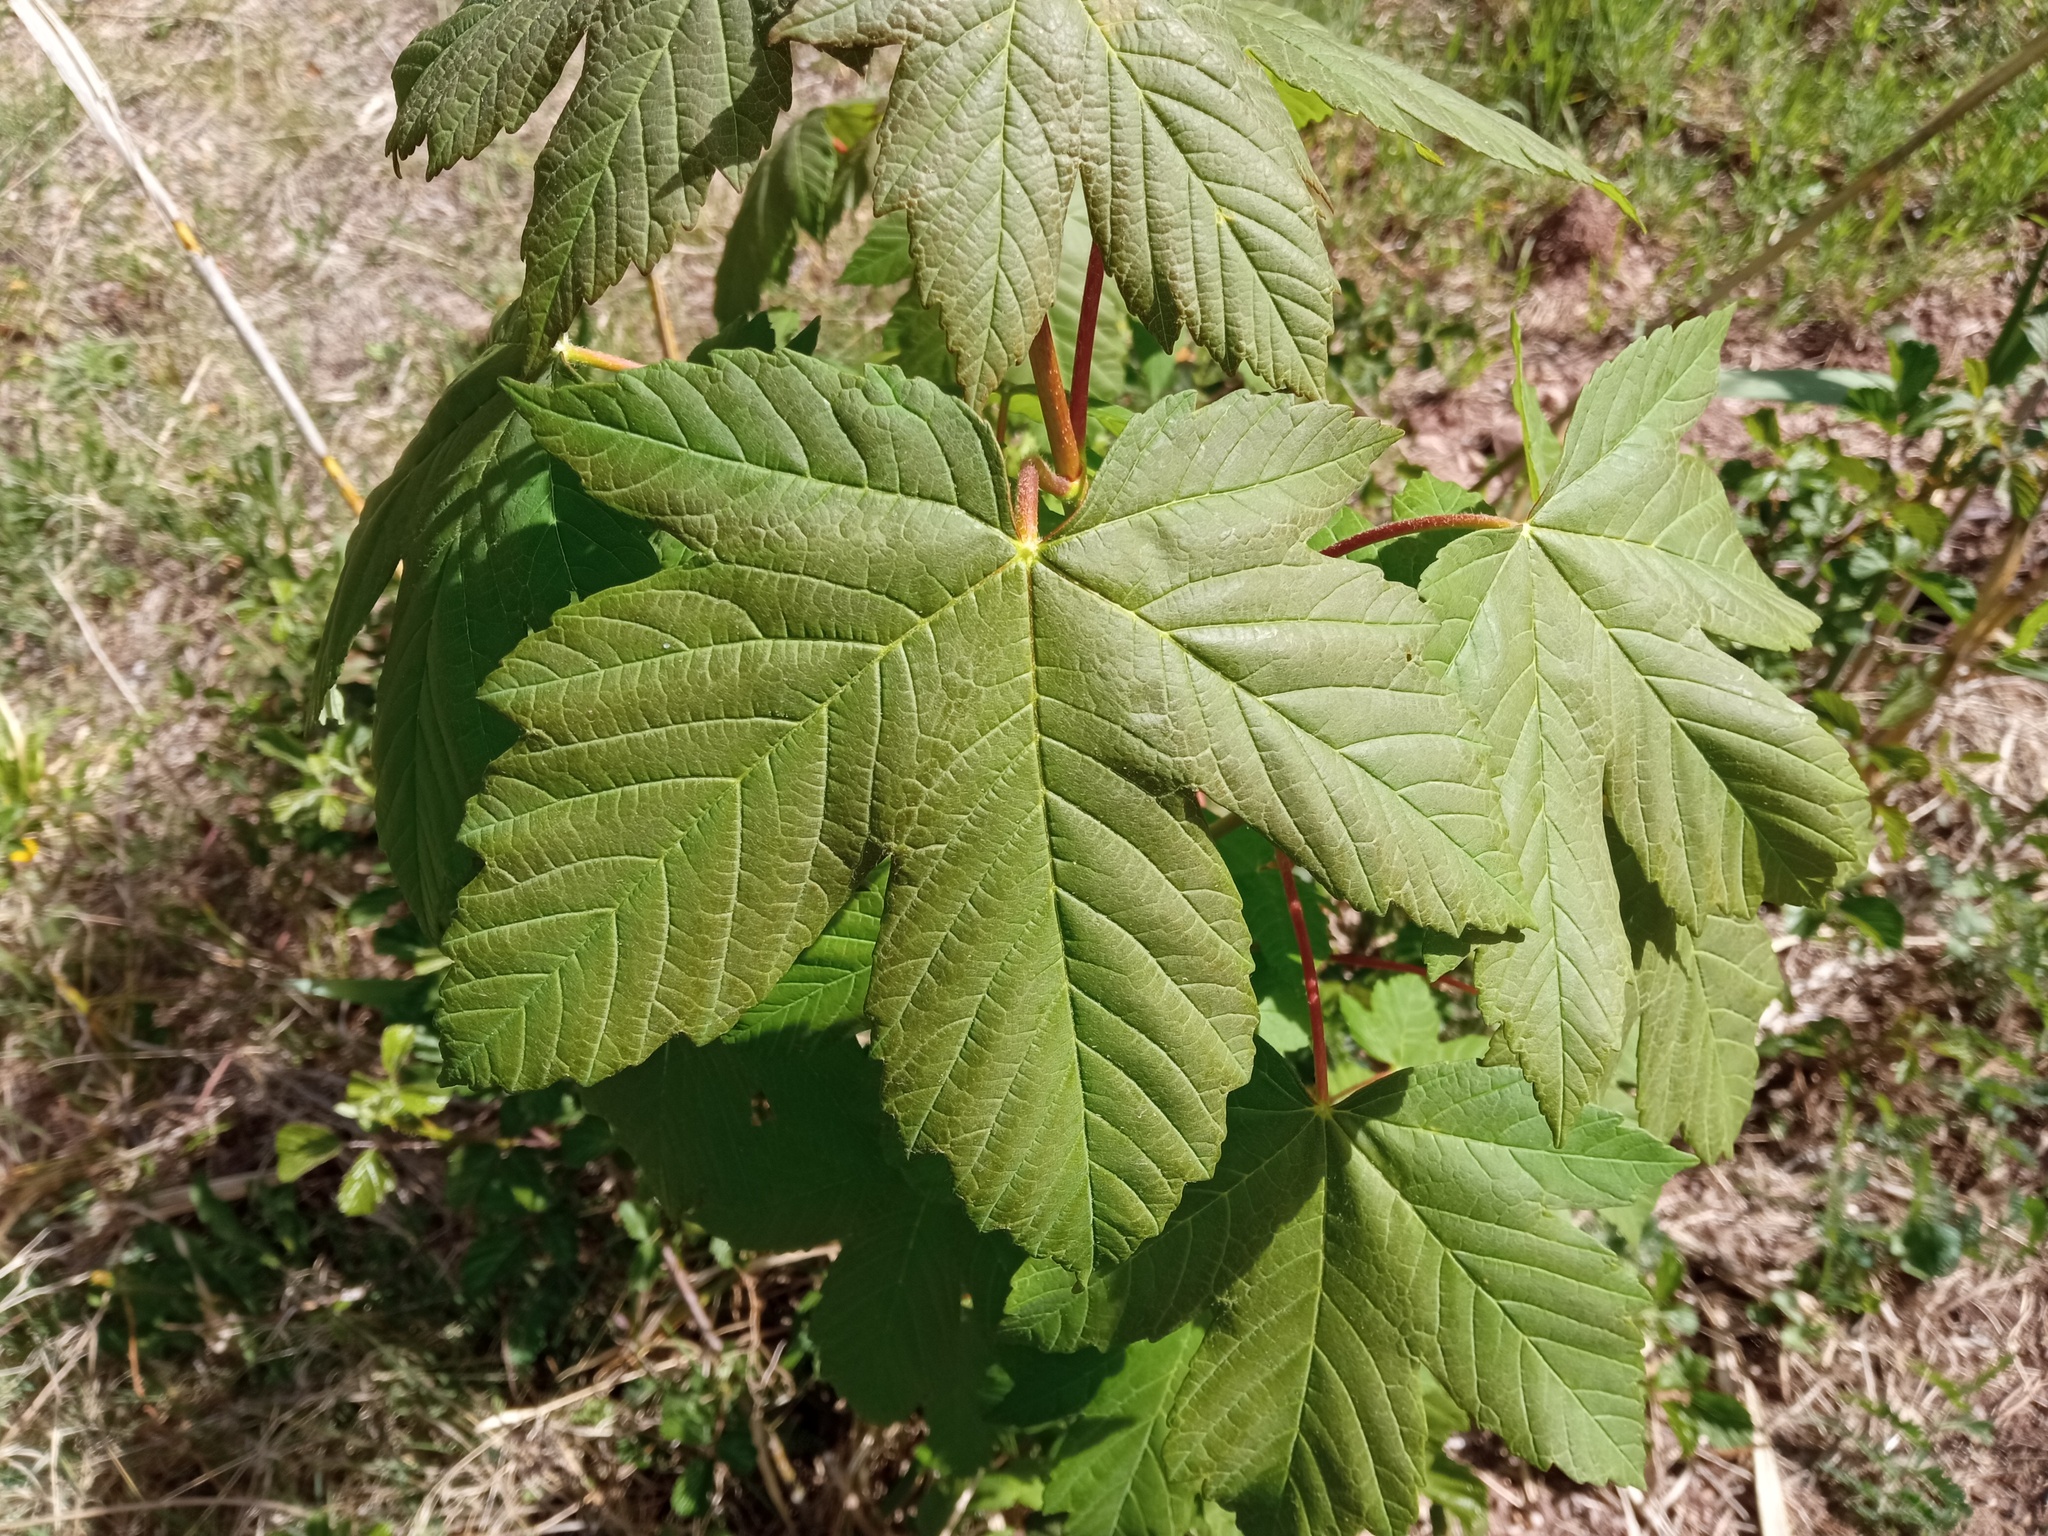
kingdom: Plantae
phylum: Tracheophyta
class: Magnoliopsida
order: Sapindales
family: Sapindaceae
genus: Acer
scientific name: Acer pseudoplatanus
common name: Sycamore
